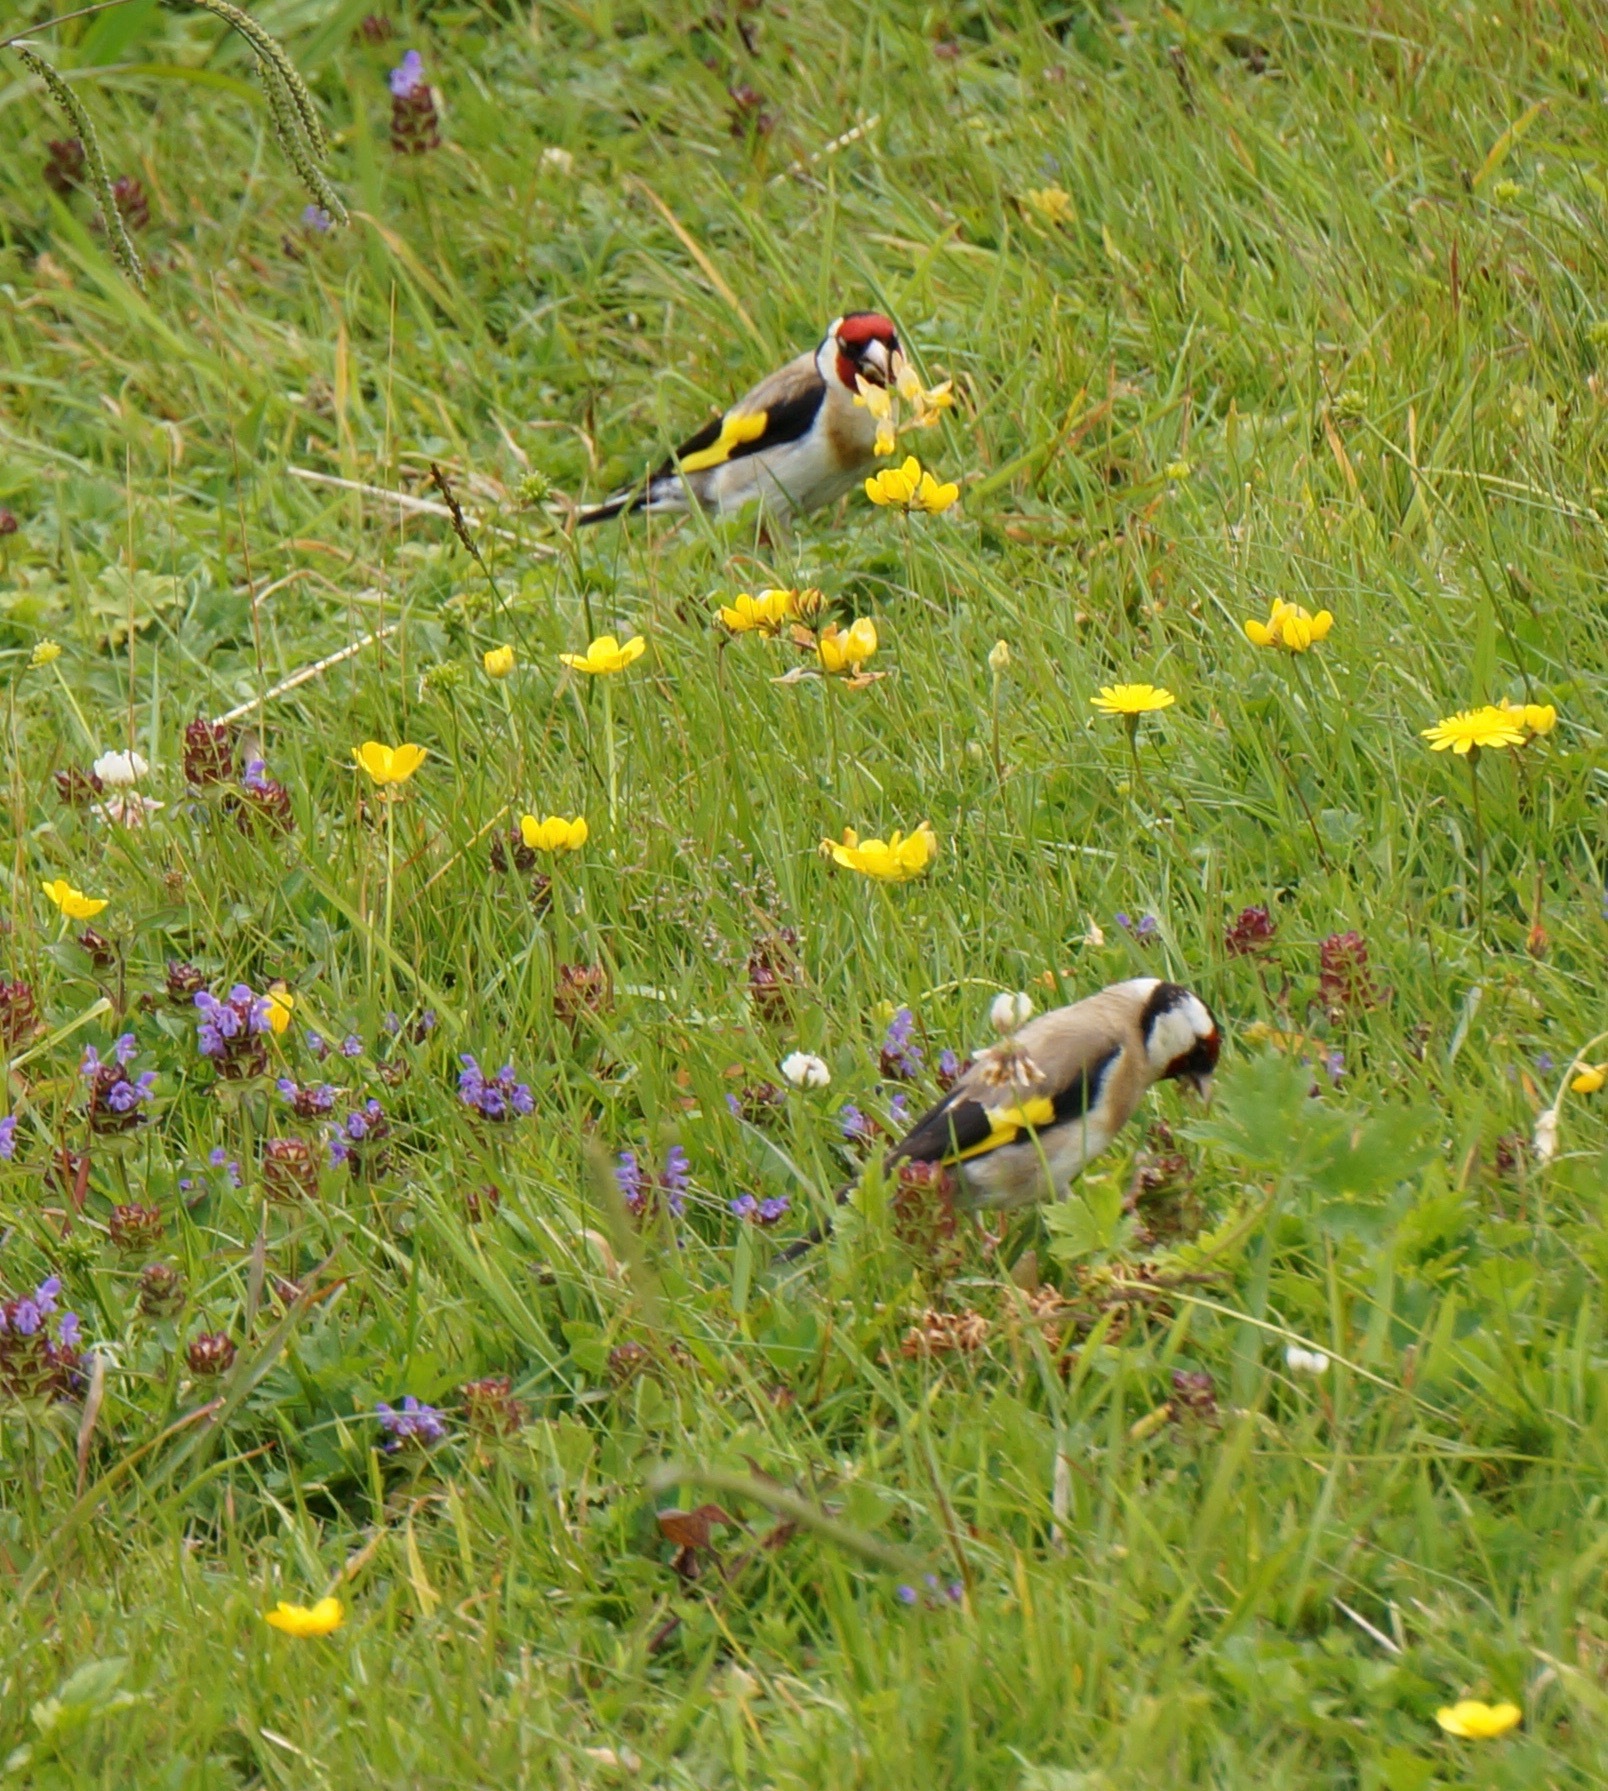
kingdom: Animalia
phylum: Chordata
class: Aves
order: Passeriformes
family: Fringillidae
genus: Carduelis
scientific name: Carduelis carduelis
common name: European goldfinch
